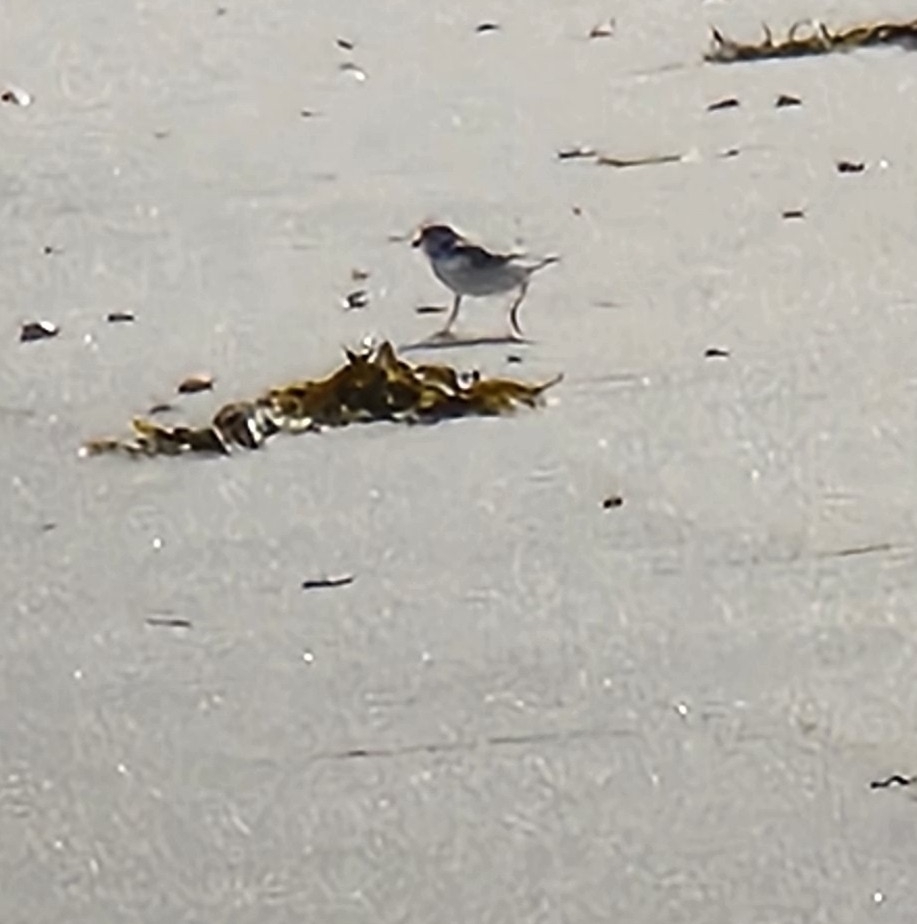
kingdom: Animalia
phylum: Chordata
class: Aves
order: Charadriiformes
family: Charadriidae
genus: Charadrius
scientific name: Charadrius melodus
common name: Piping plover
